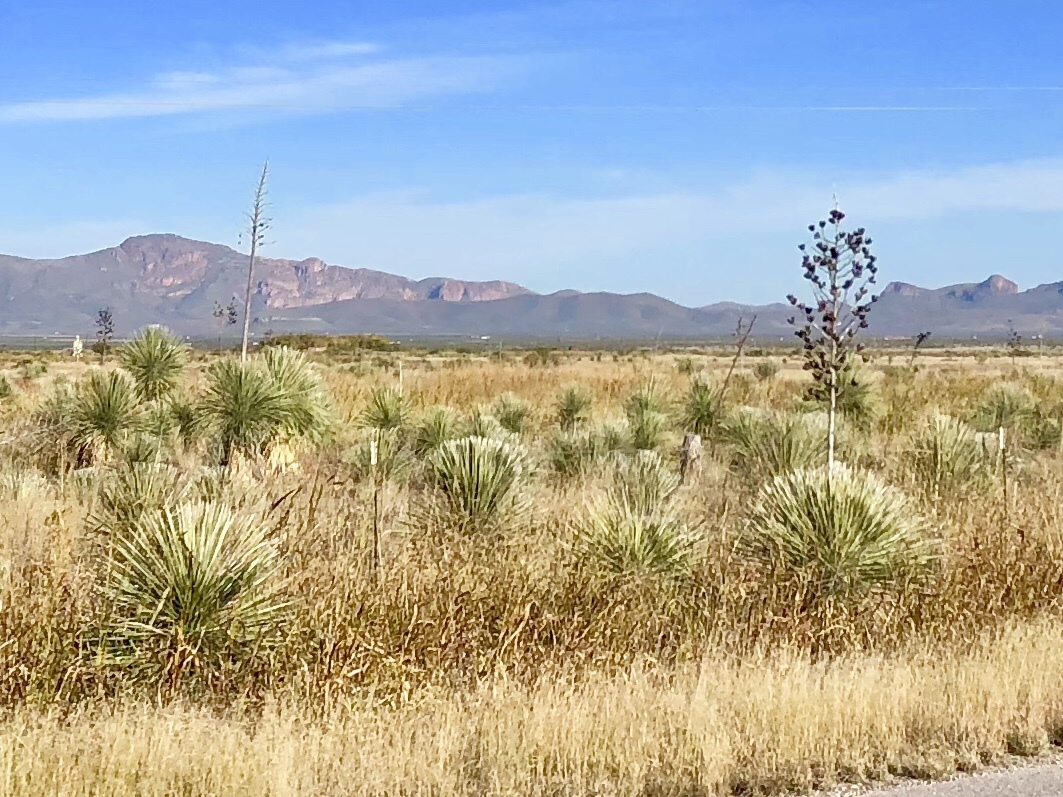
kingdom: Plantae
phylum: Tracheophyta
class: Liliopsida
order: Asparagales
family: Asparagaceae
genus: Yucca
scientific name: Yucca elata
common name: Palmella
